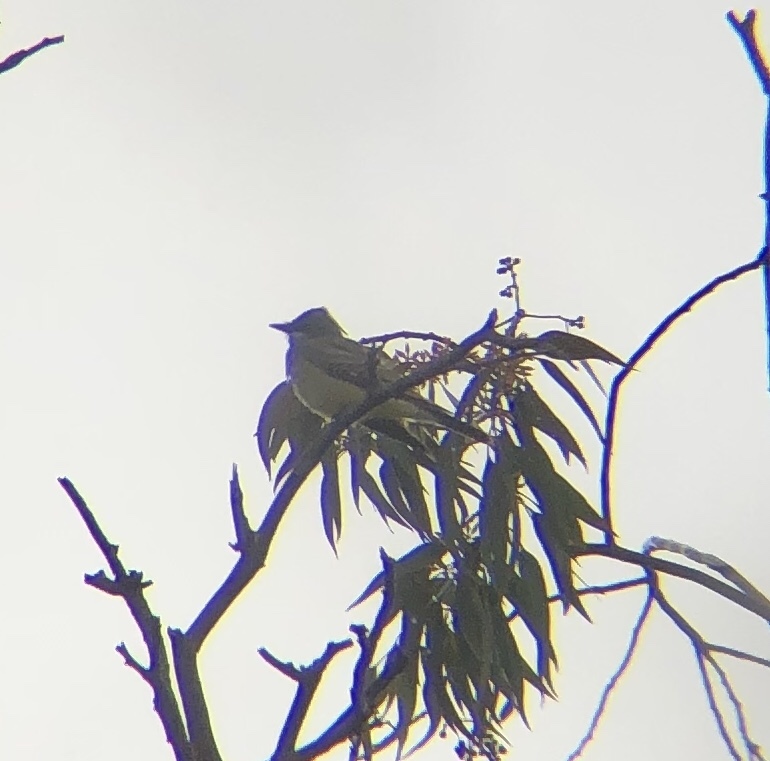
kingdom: Animalia
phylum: Chordata
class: Aves
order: Passeriformes
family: Tyrannidae
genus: Tyrannus
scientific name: Tyrannus vociferans
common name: Cassin's kingbird
